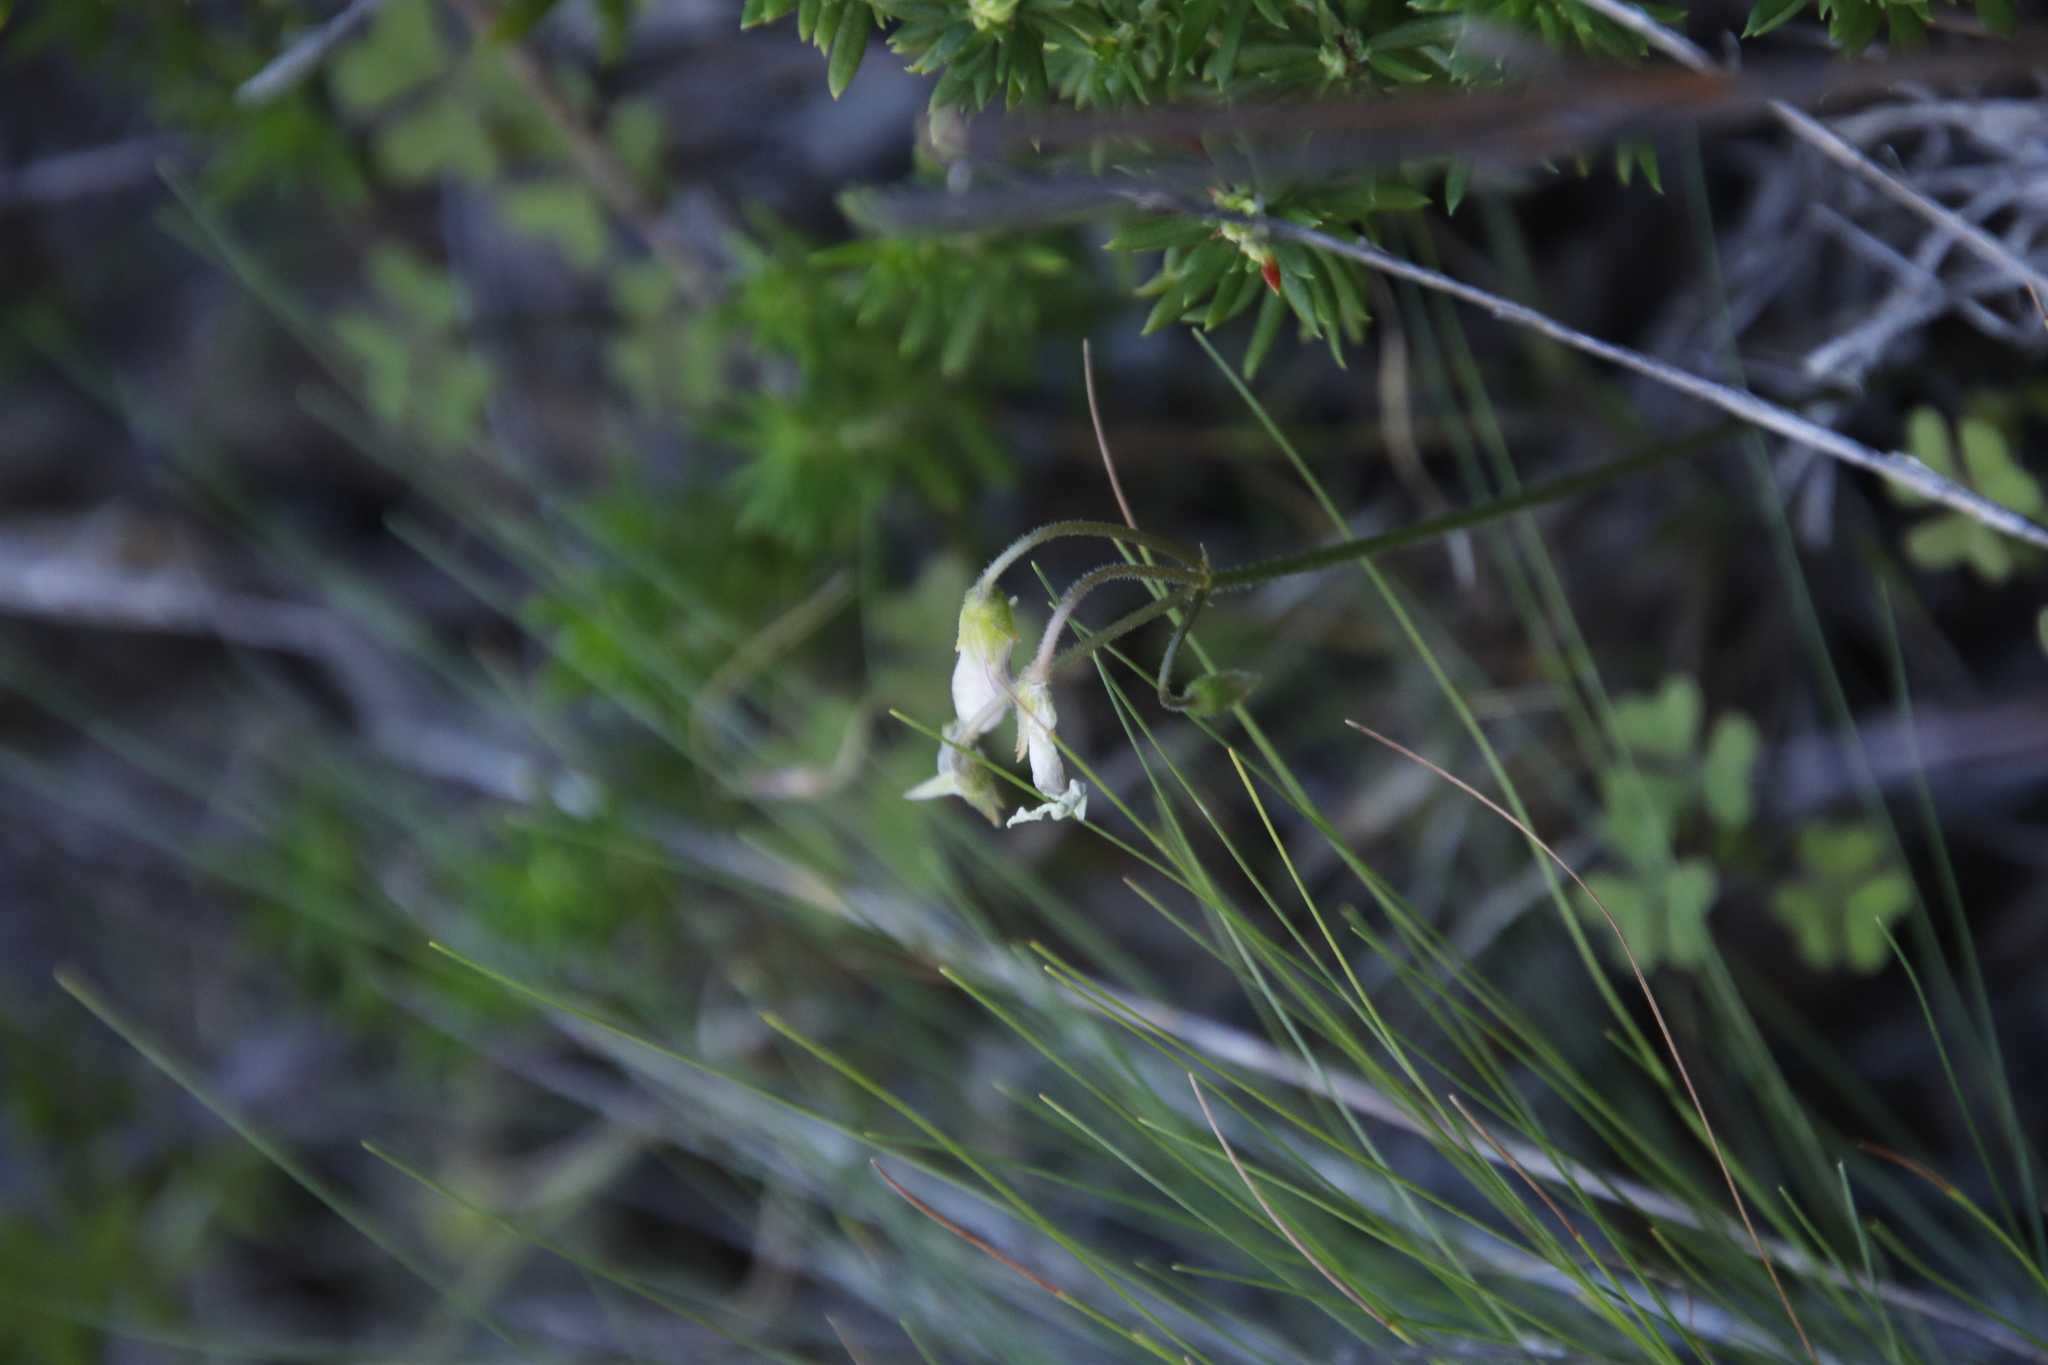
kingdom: Plantae
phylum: Tracheophyta
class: Magnoliopsida
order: Oxalidales
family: Oxalidaceae
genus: Oxalis
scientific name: Oxalis
